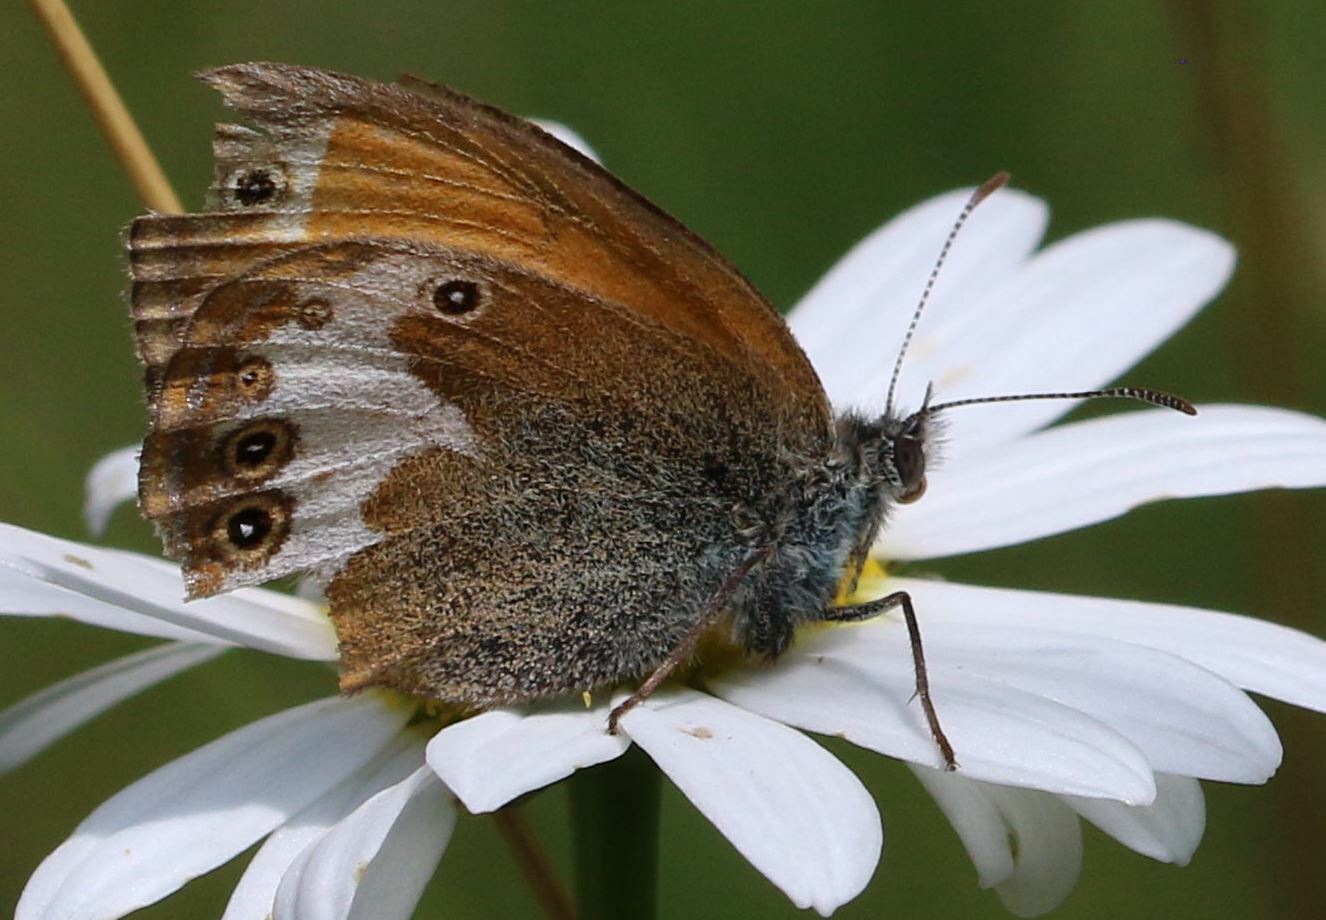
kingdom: Animalia
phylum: Arthropoda
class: Insecta
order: Lepidoptera
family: Nymphalidae
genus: Coenonympha
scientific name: Coenonympha arcania
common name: Pearly heath
